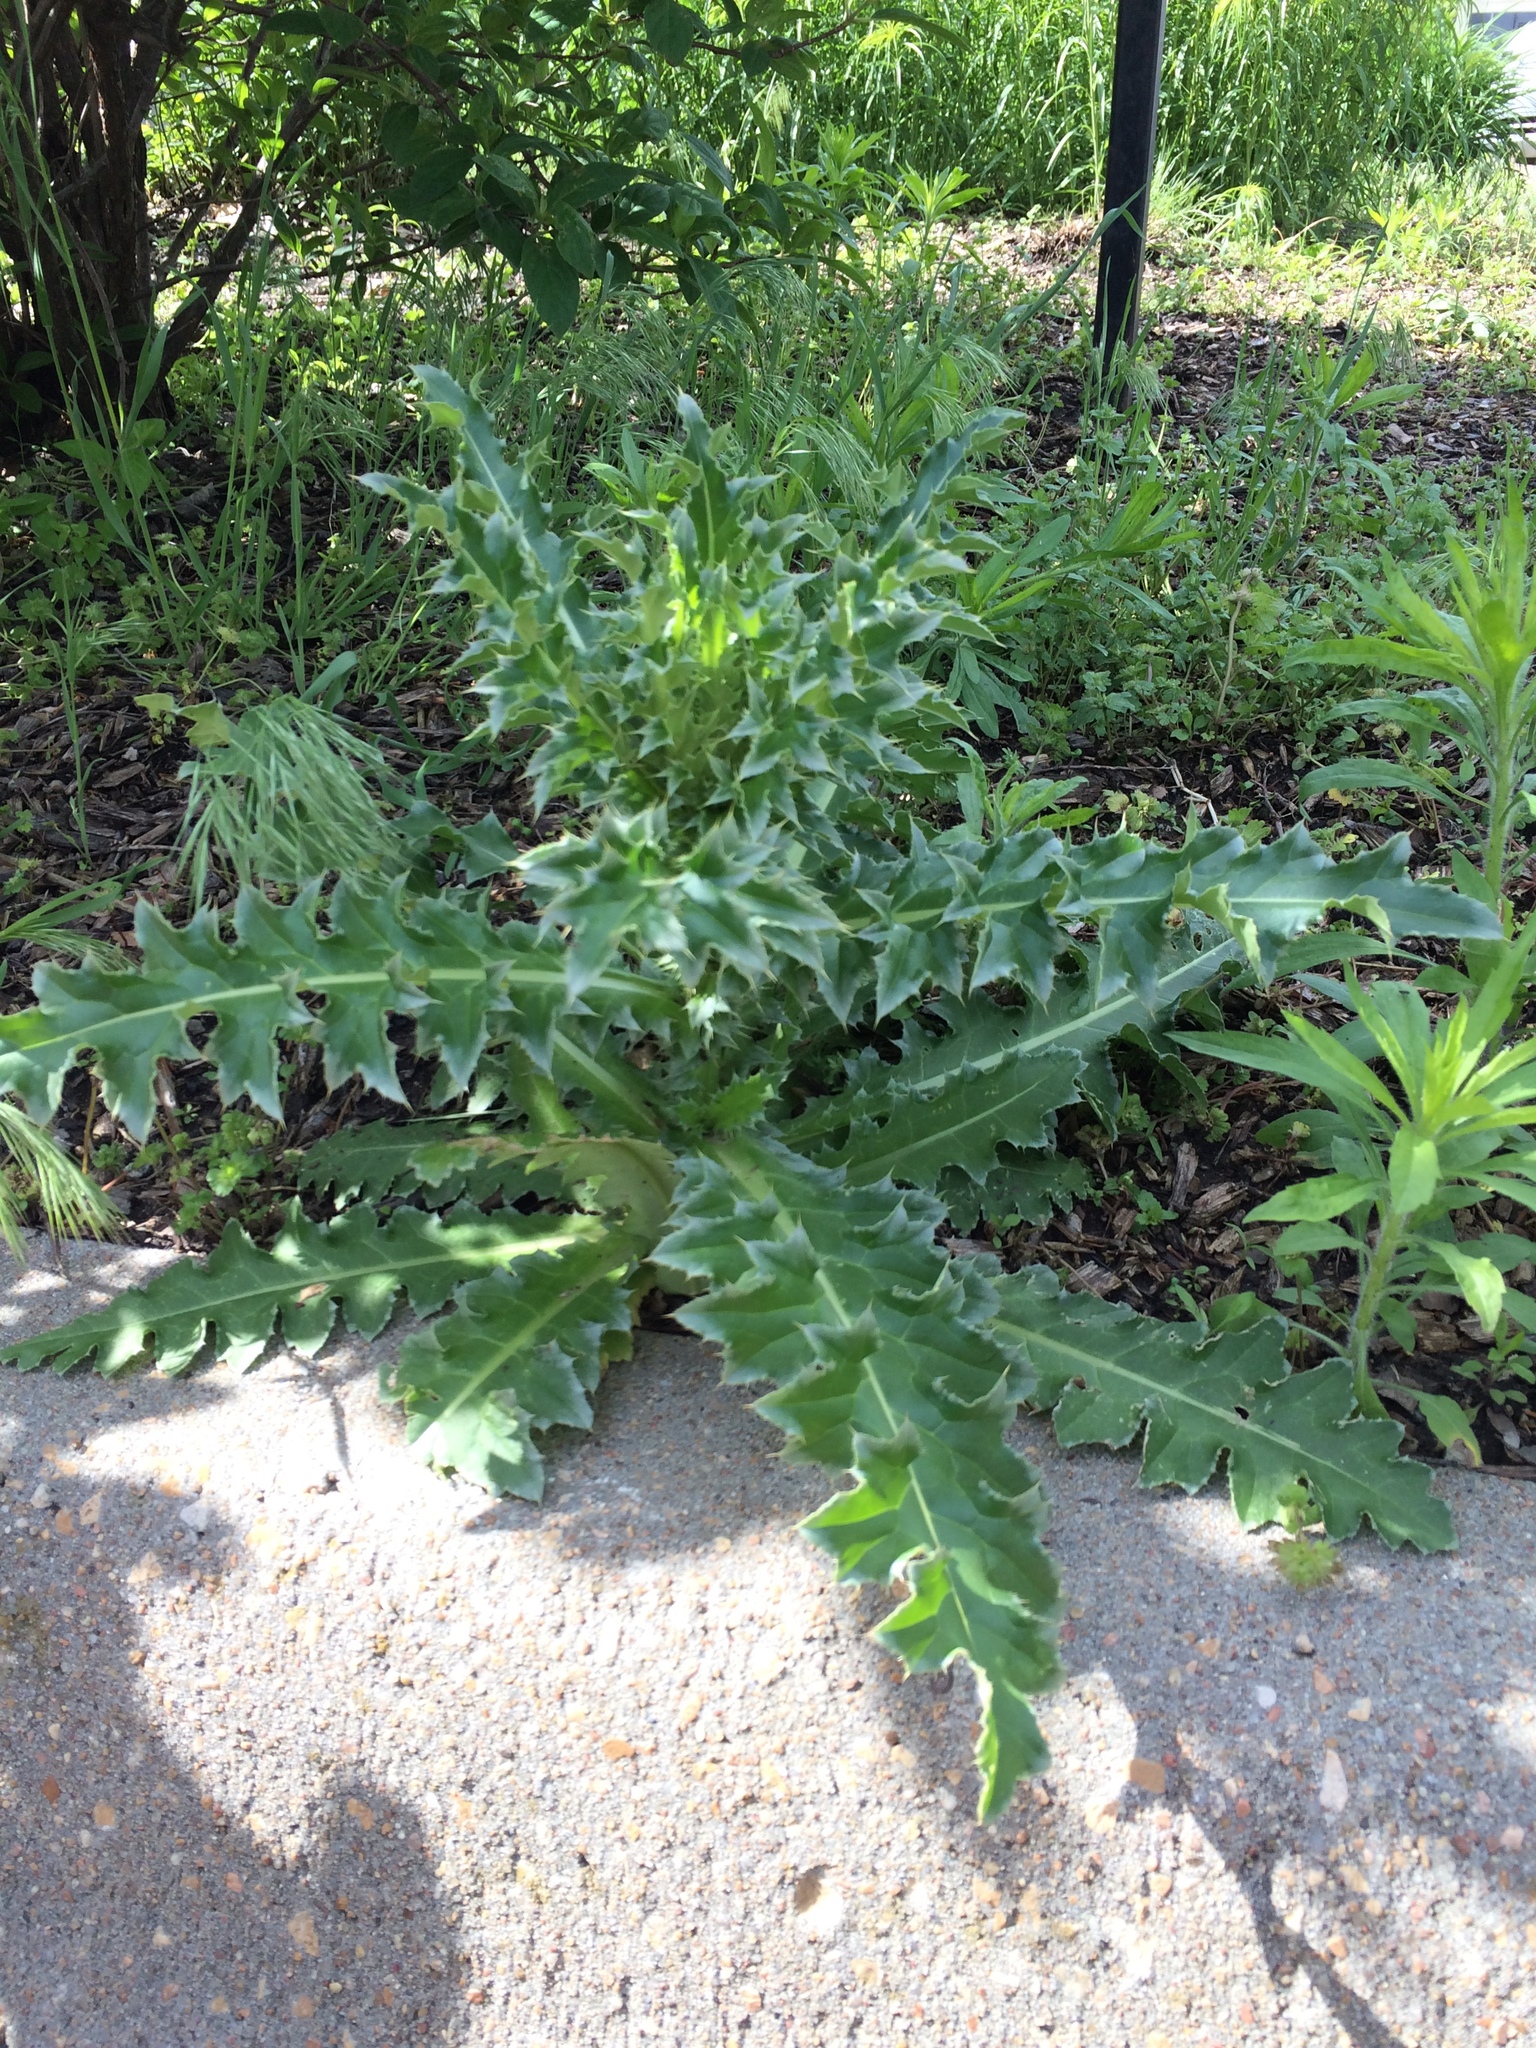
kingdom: Plantae
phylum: Tracheophyta
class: Magnoliopsida
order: Asterales
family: Asteraceae
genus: Carduus
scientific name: Carduus nutans
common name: Musk thistle
